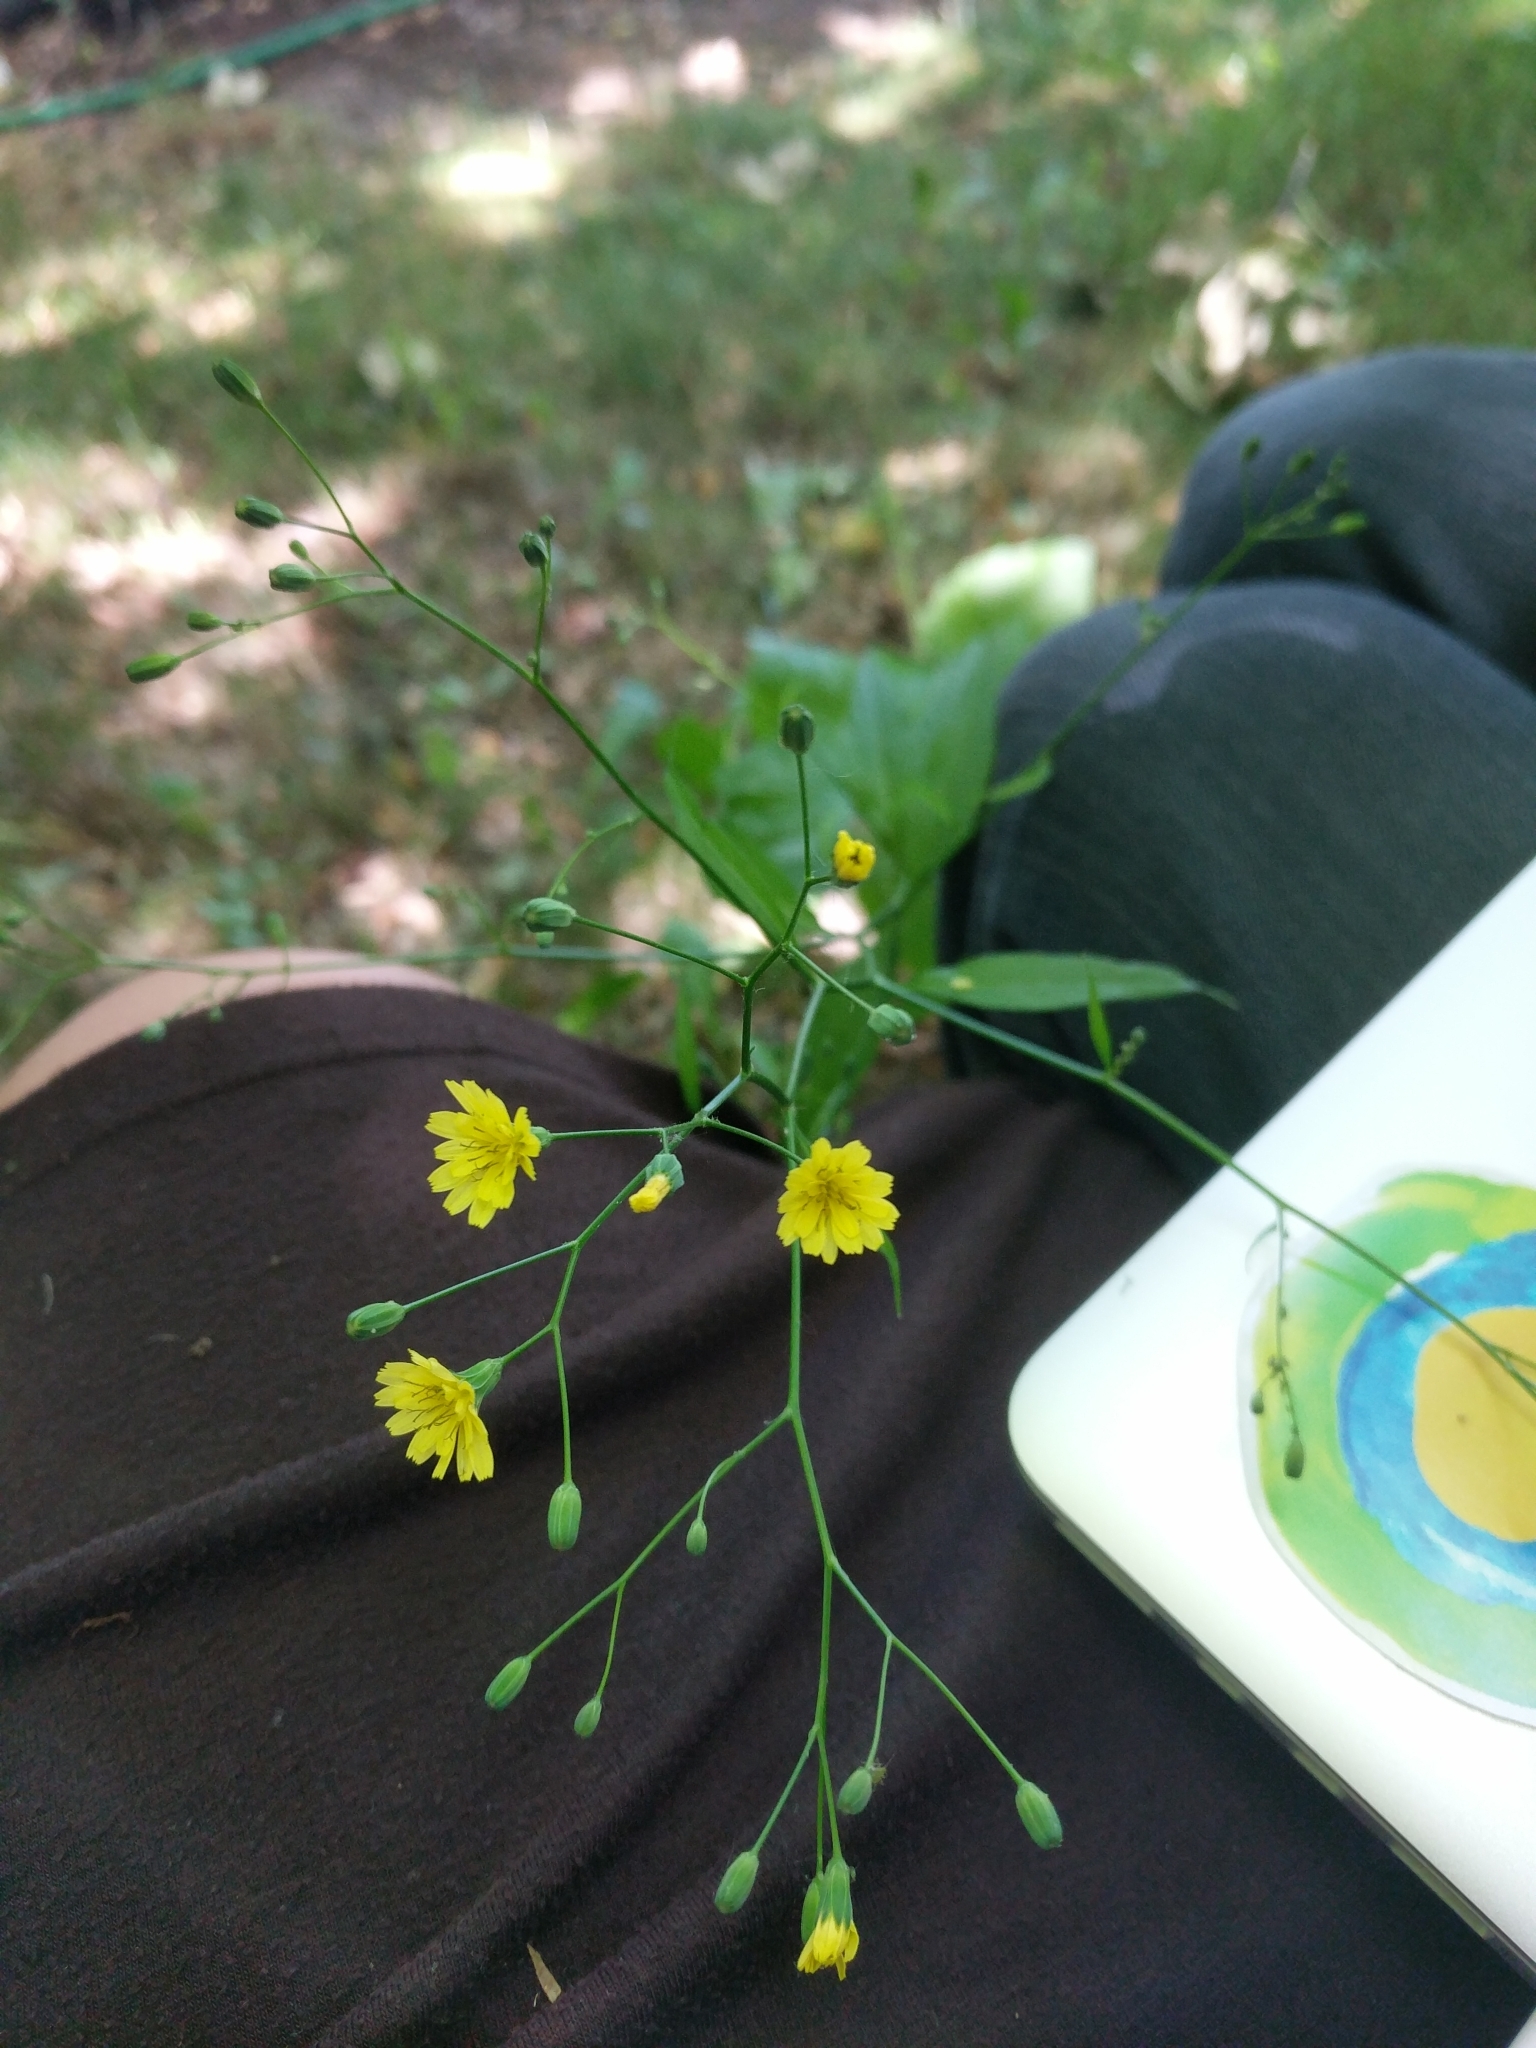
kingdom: Plantae
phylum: Tracheophyta
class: Magnoliopsida
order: Asterales
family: Asteraceae
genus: Lapsana
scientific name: Lapsana communis
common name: Nipplewort
